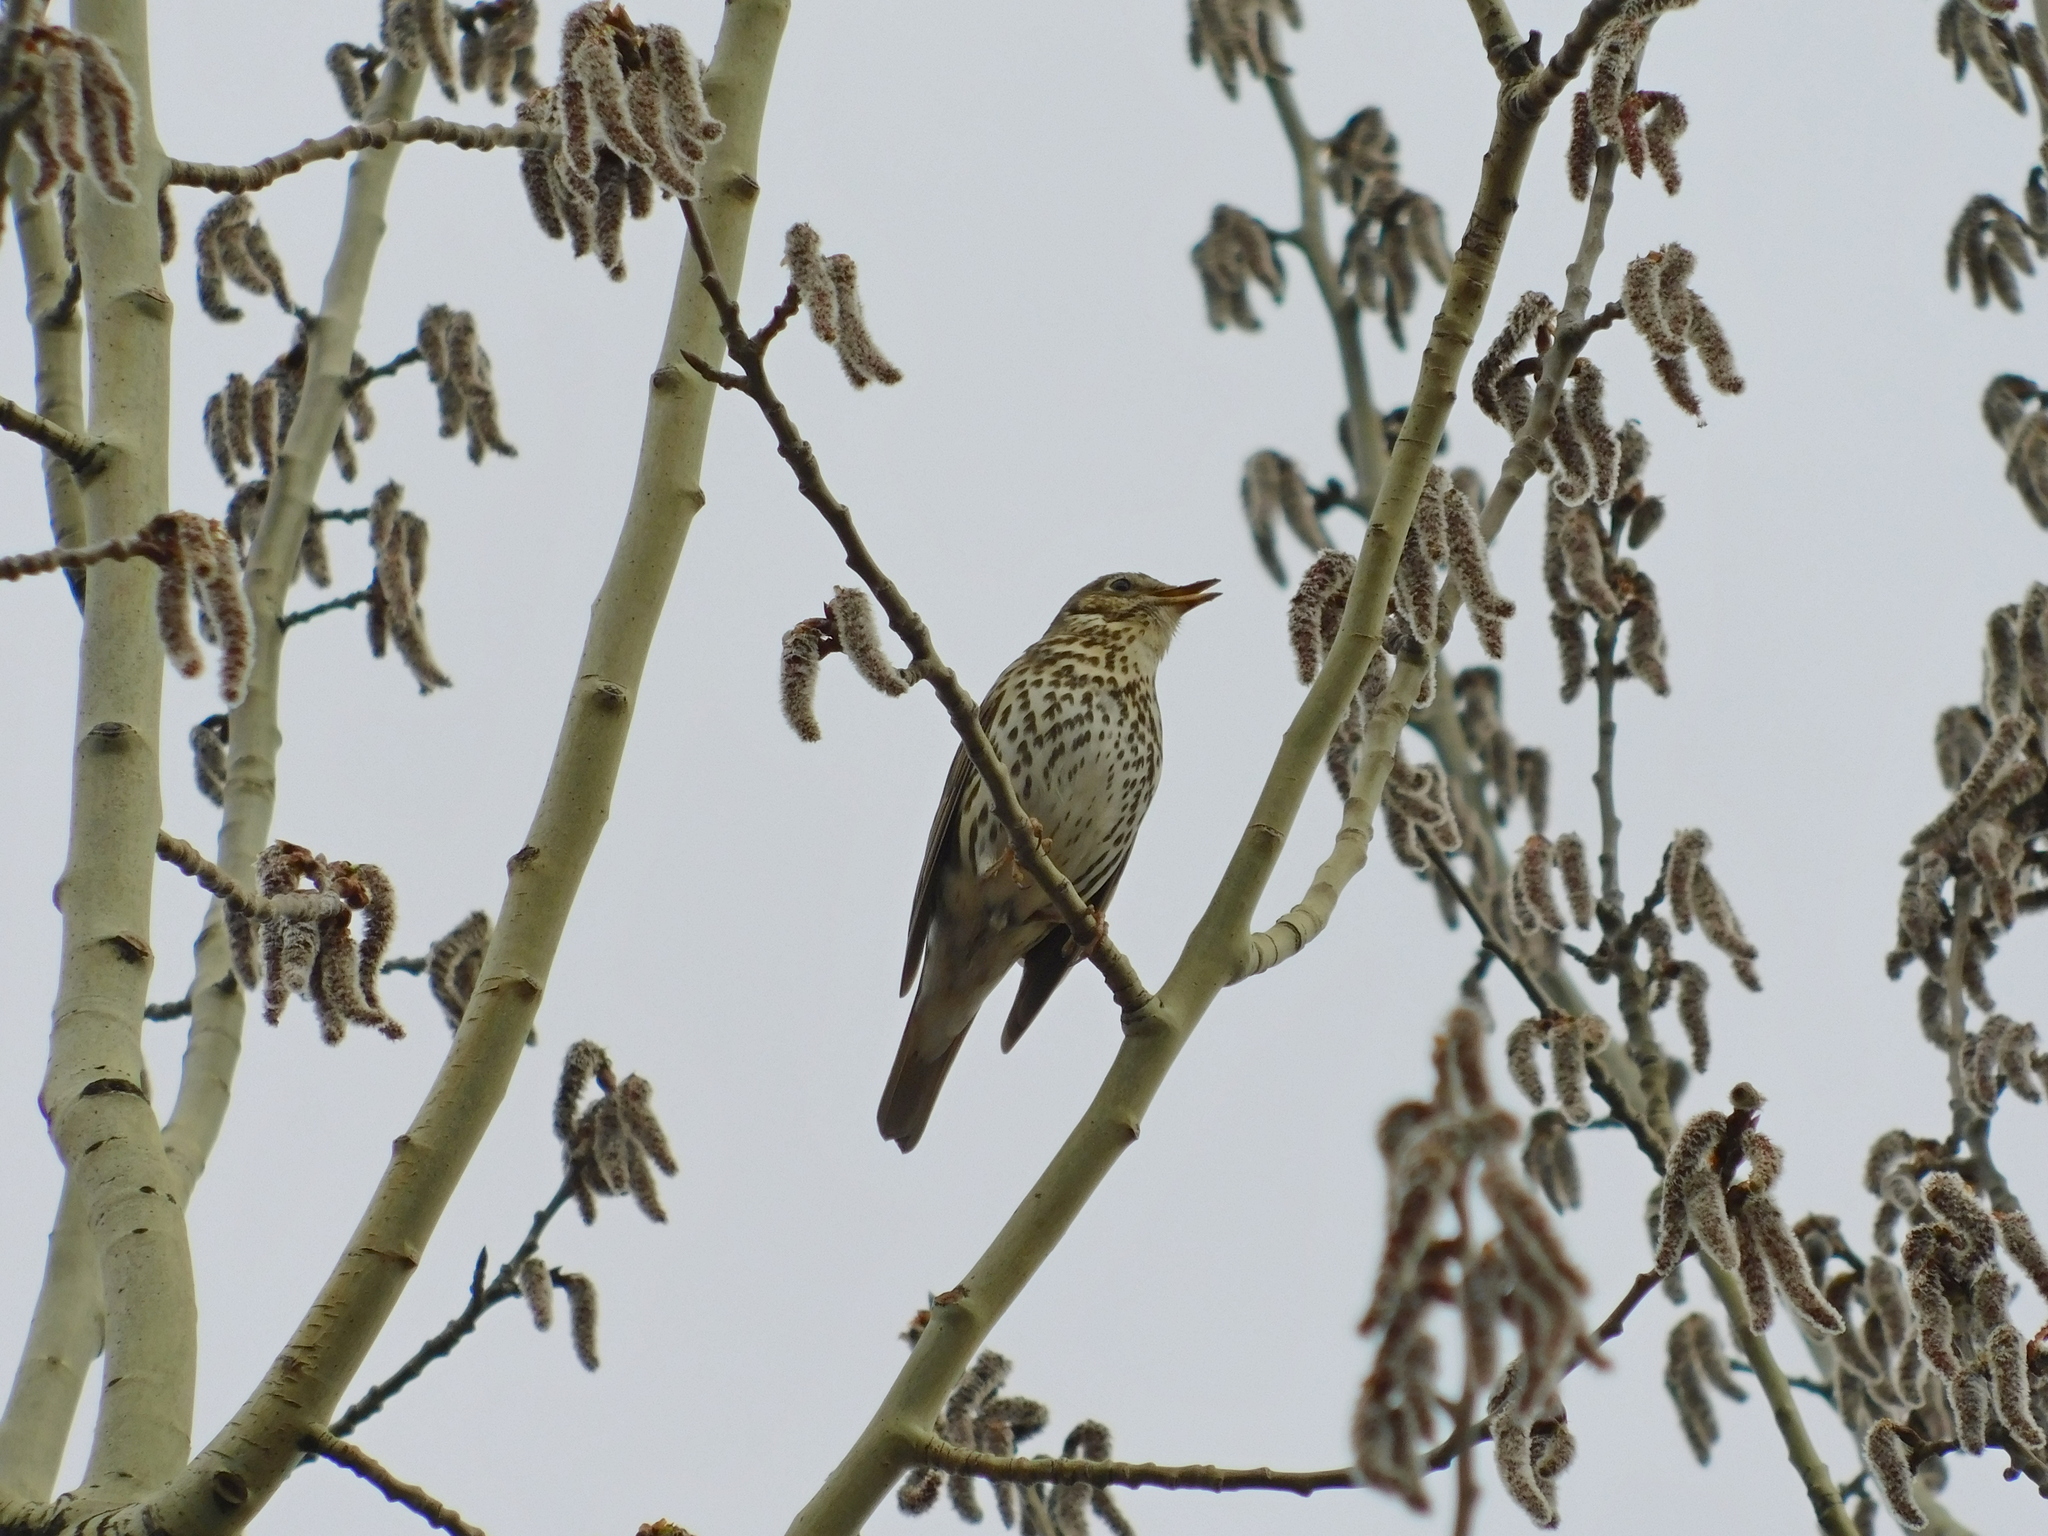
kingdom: Animalia
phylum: Chordata
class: Aves
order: Passeriformes
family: Turdidae
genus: Turdus
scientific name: Turdus philomelos
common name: Song thrush
